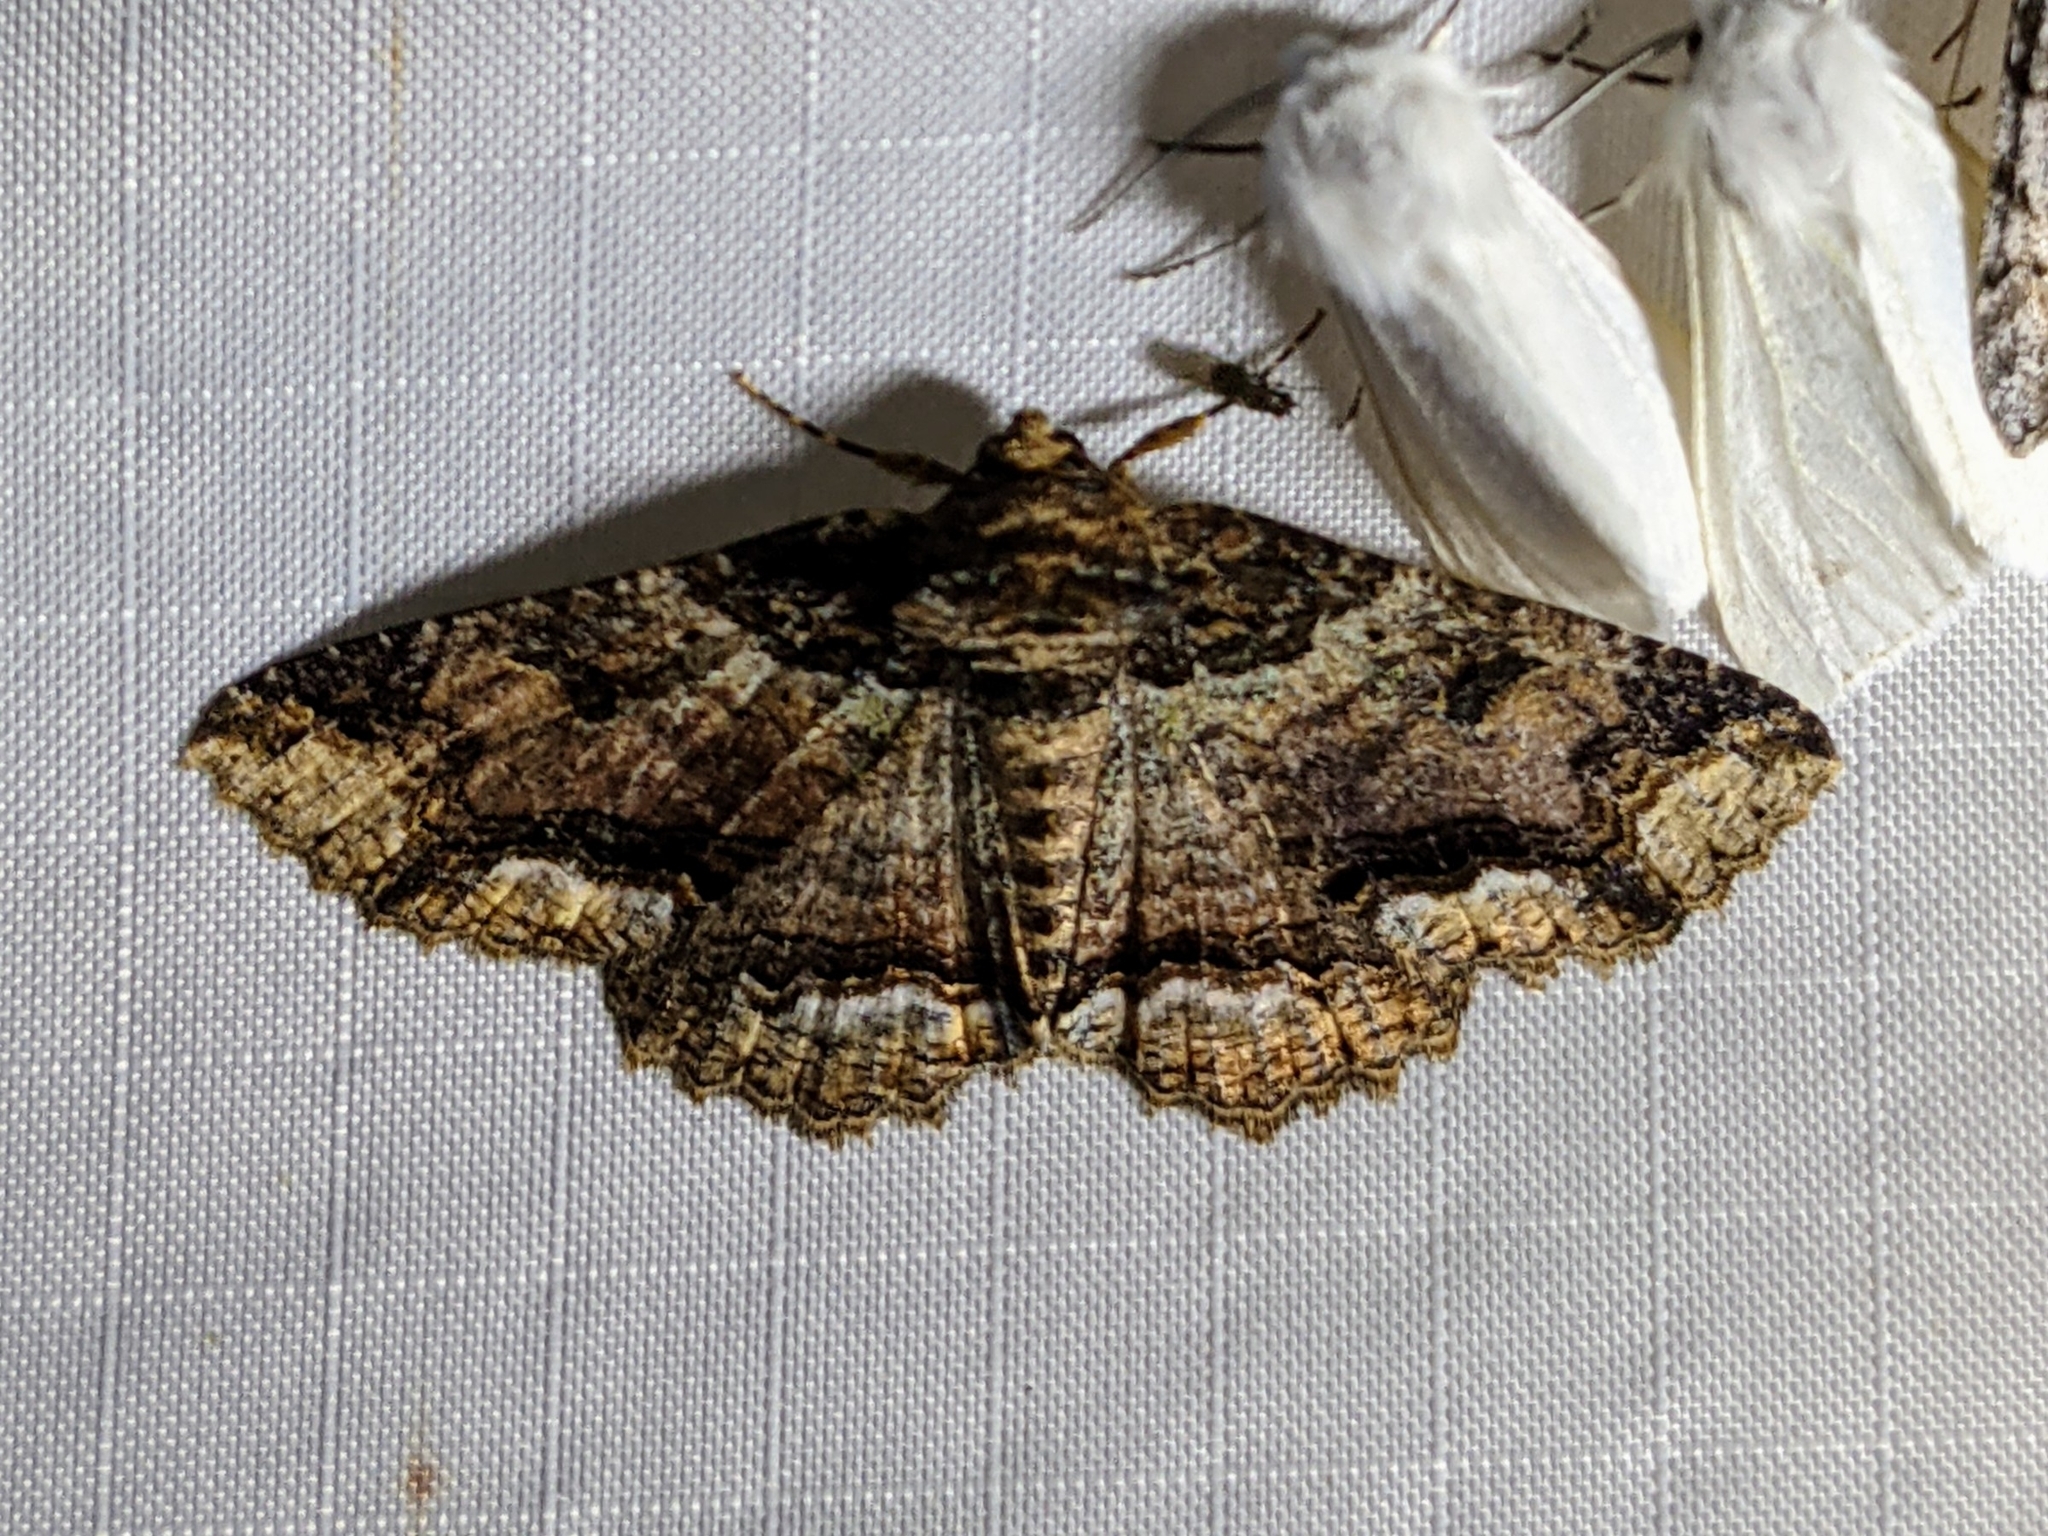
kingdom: Animalia
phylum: Arthropoda
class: Insecta
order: Lepidoptera
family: Erebidae
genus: Zale
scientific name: Zale minerea
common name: Colorful zale moth
